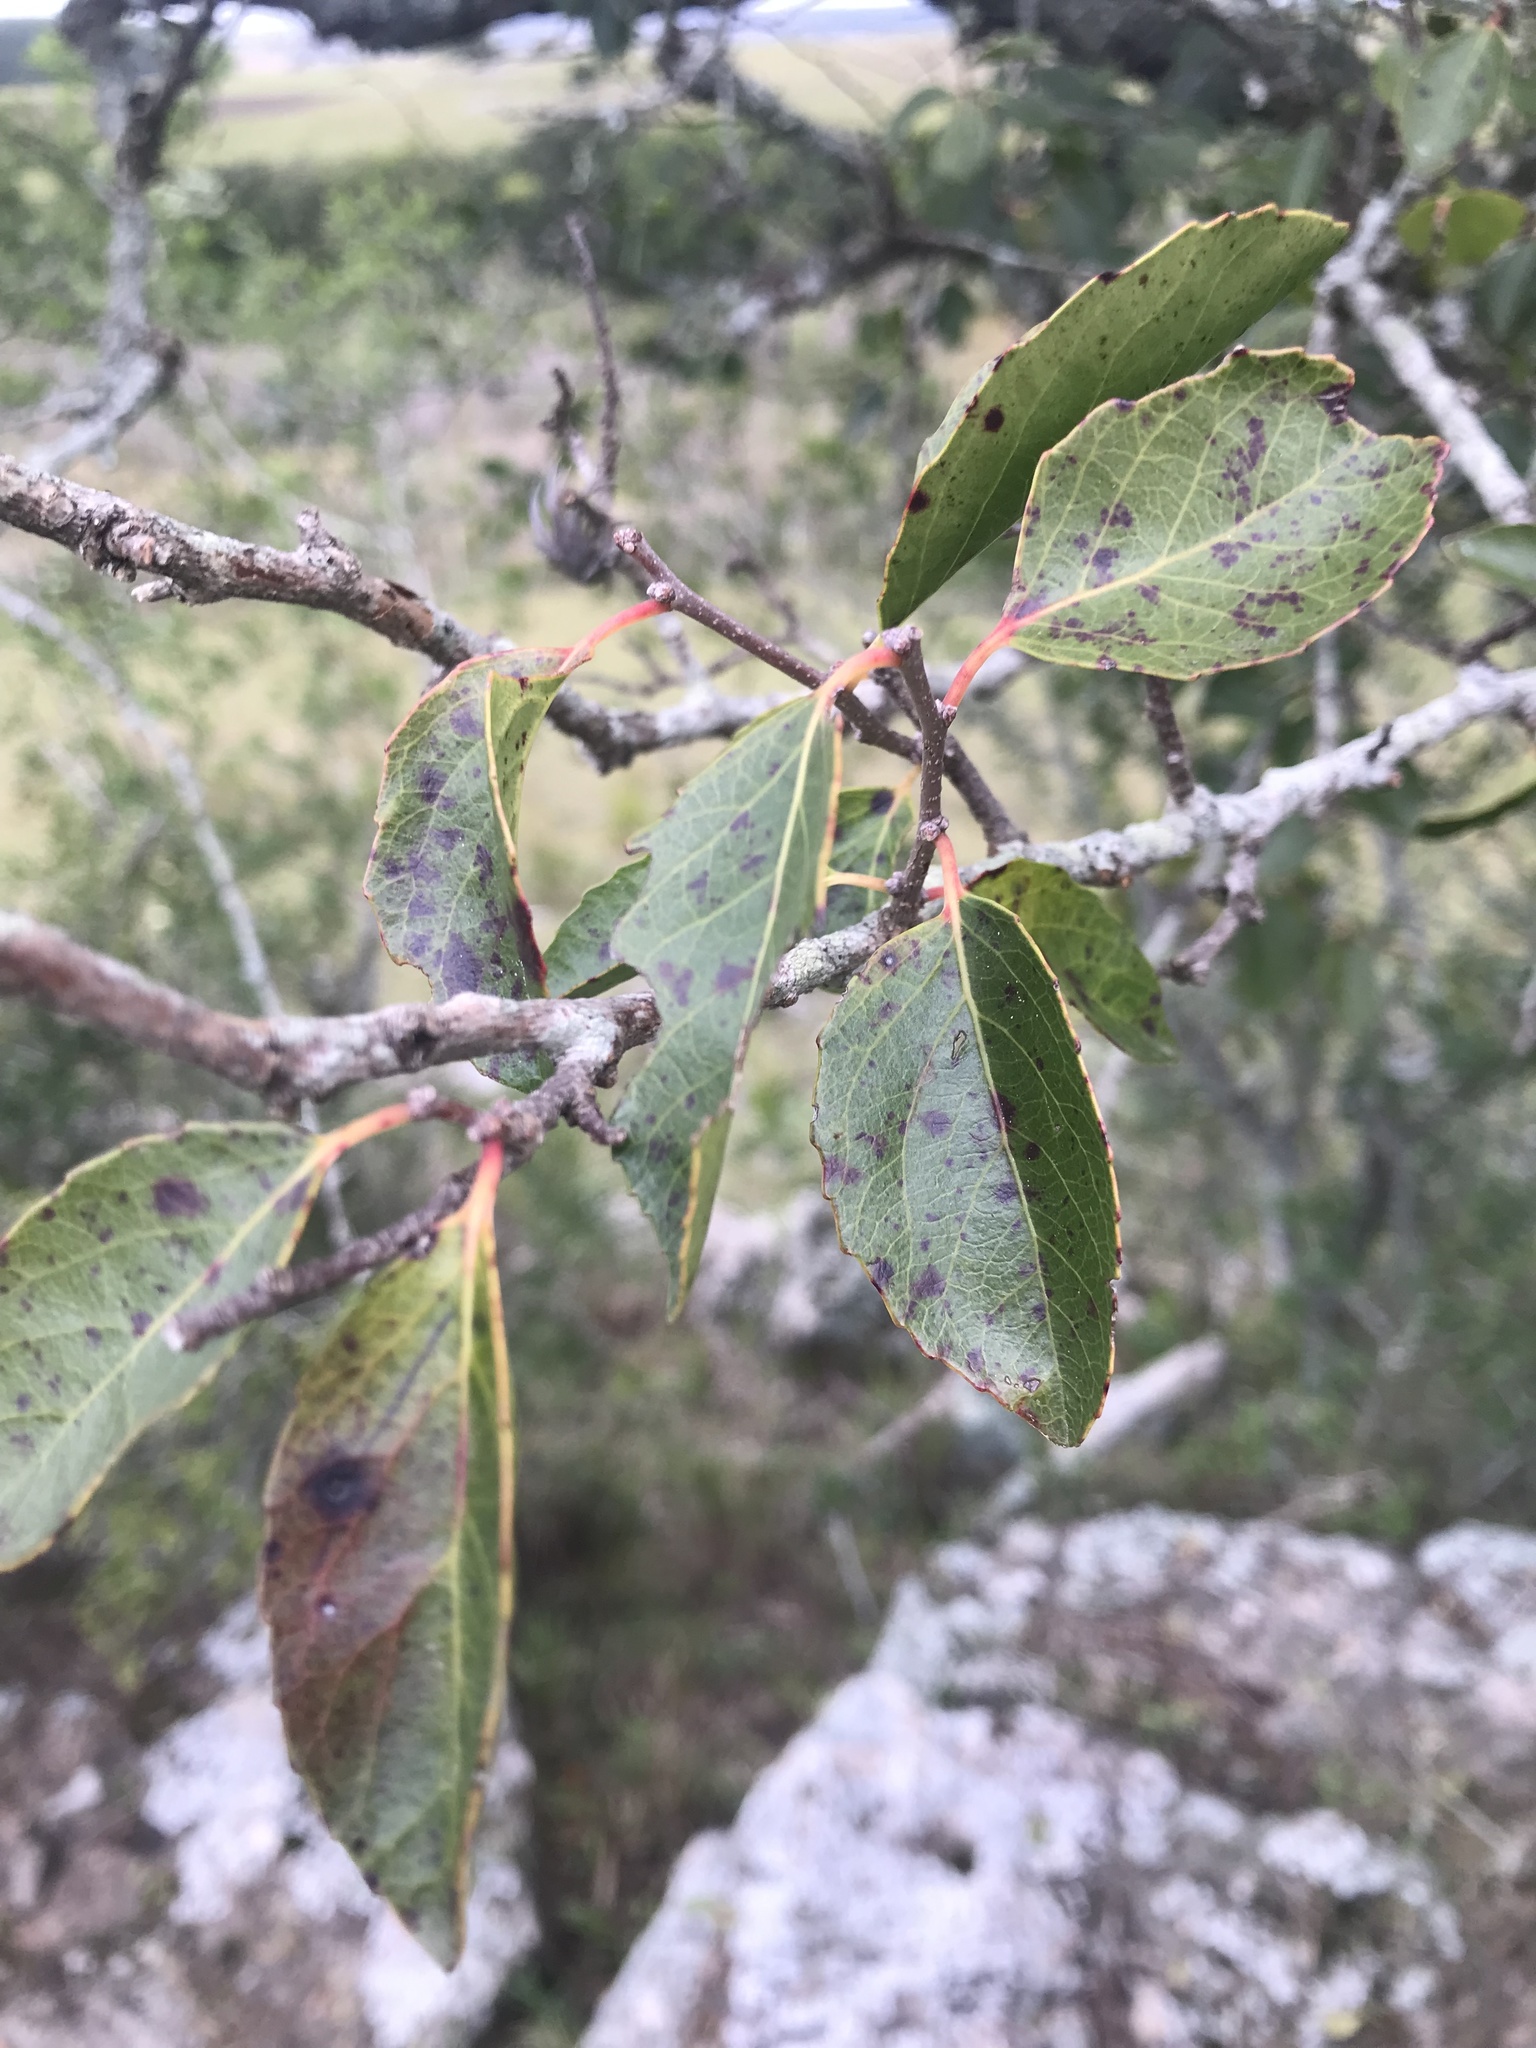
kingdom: Plantae
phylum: Tracheophyta
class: Magnoliopsida
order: Malpighiales
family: Salicaceae
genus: Xylosma
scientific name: Xylosma tweediana
